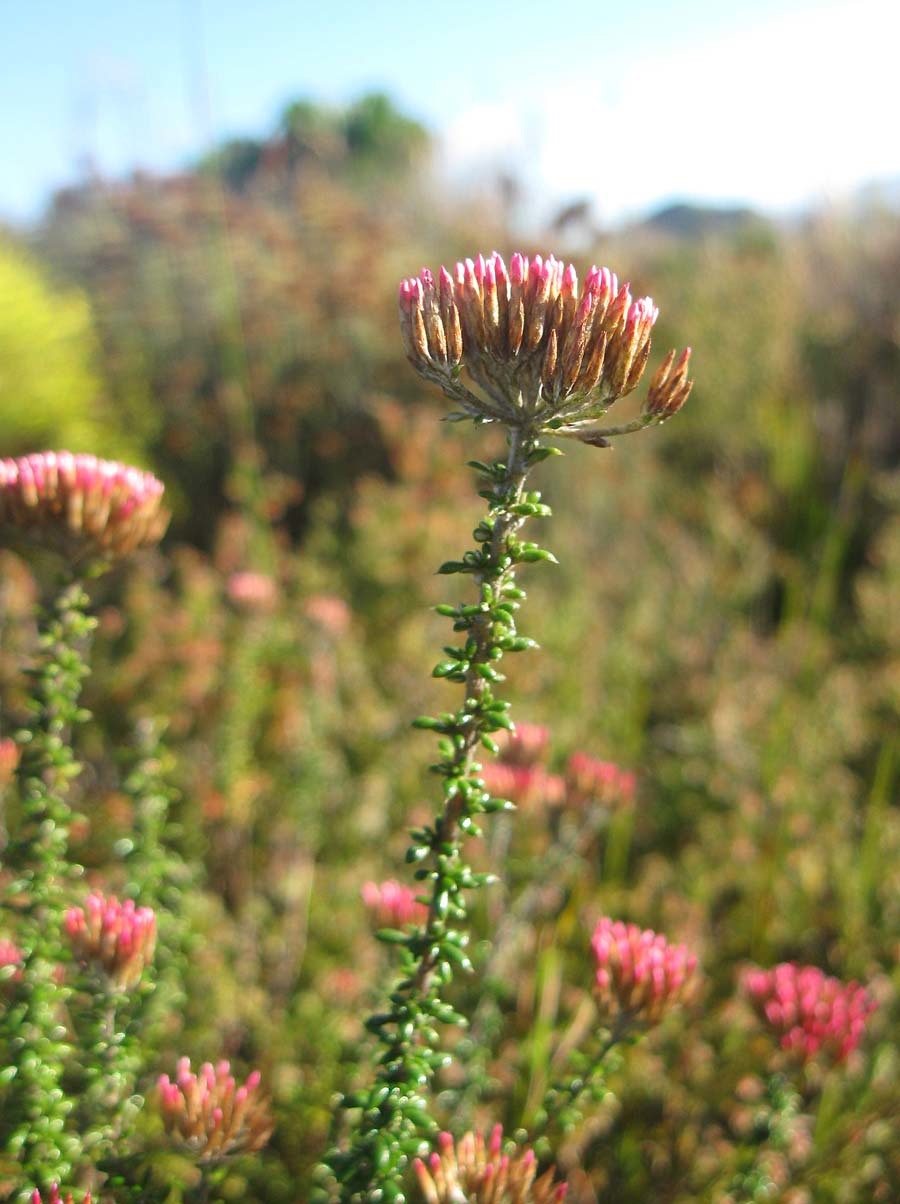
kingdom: Plantae
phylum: Tracheophyta
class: Magnoliopsida
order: Asterales
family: Asteraceae
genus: Metalasia
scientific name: Metalasia densa
